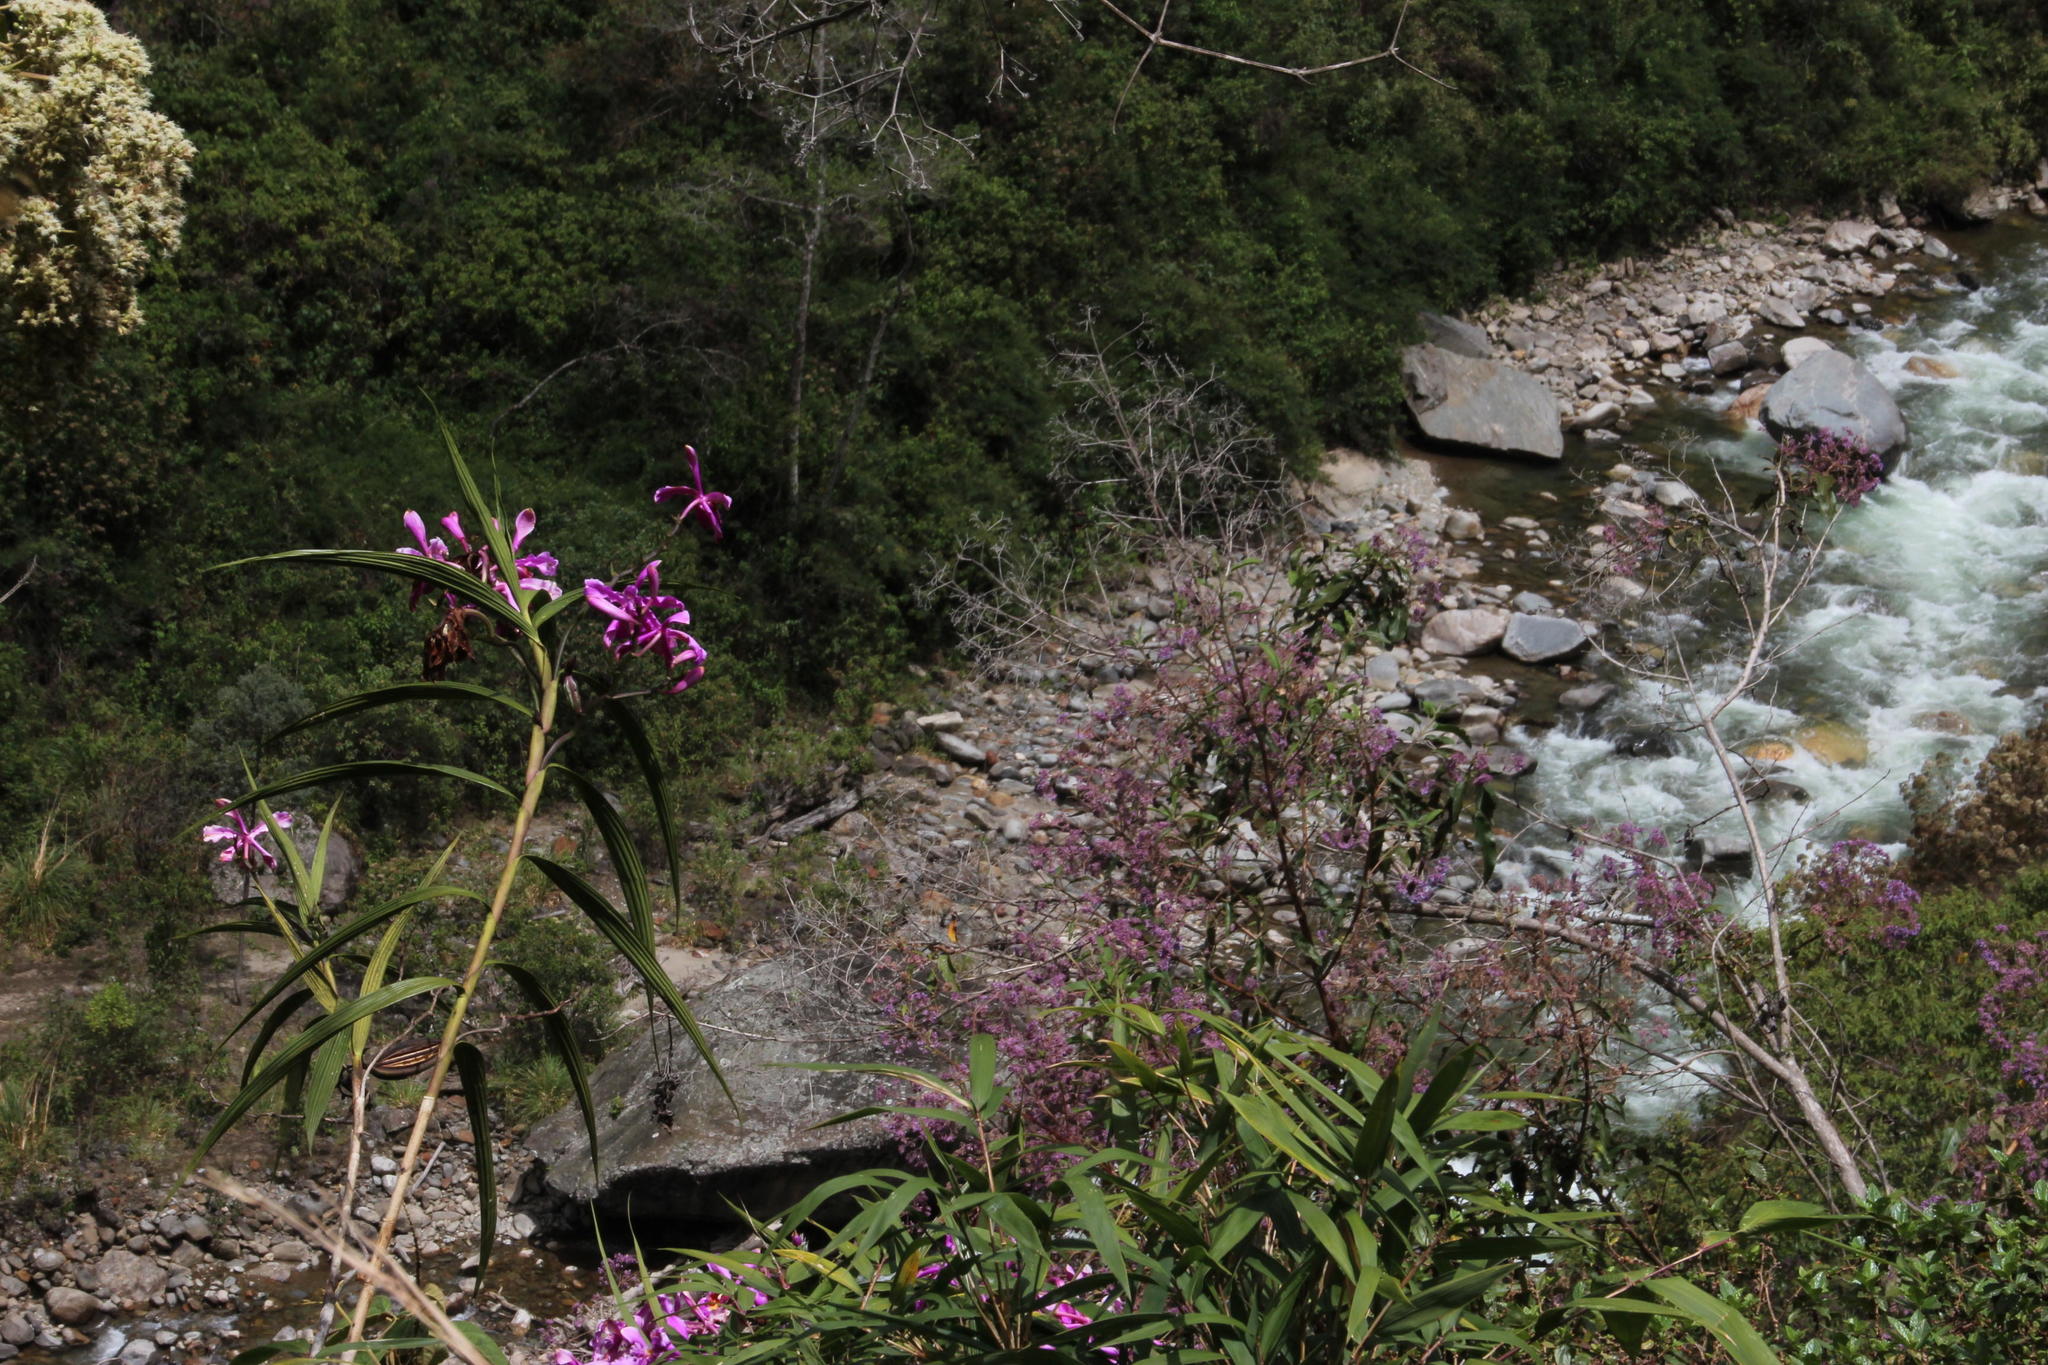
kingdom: Plantae
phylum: Tracheophyta
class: Liliopsida
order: Asparagales
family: Orchidaceae
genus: Sobralia
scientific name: Sobralia dichotoma
